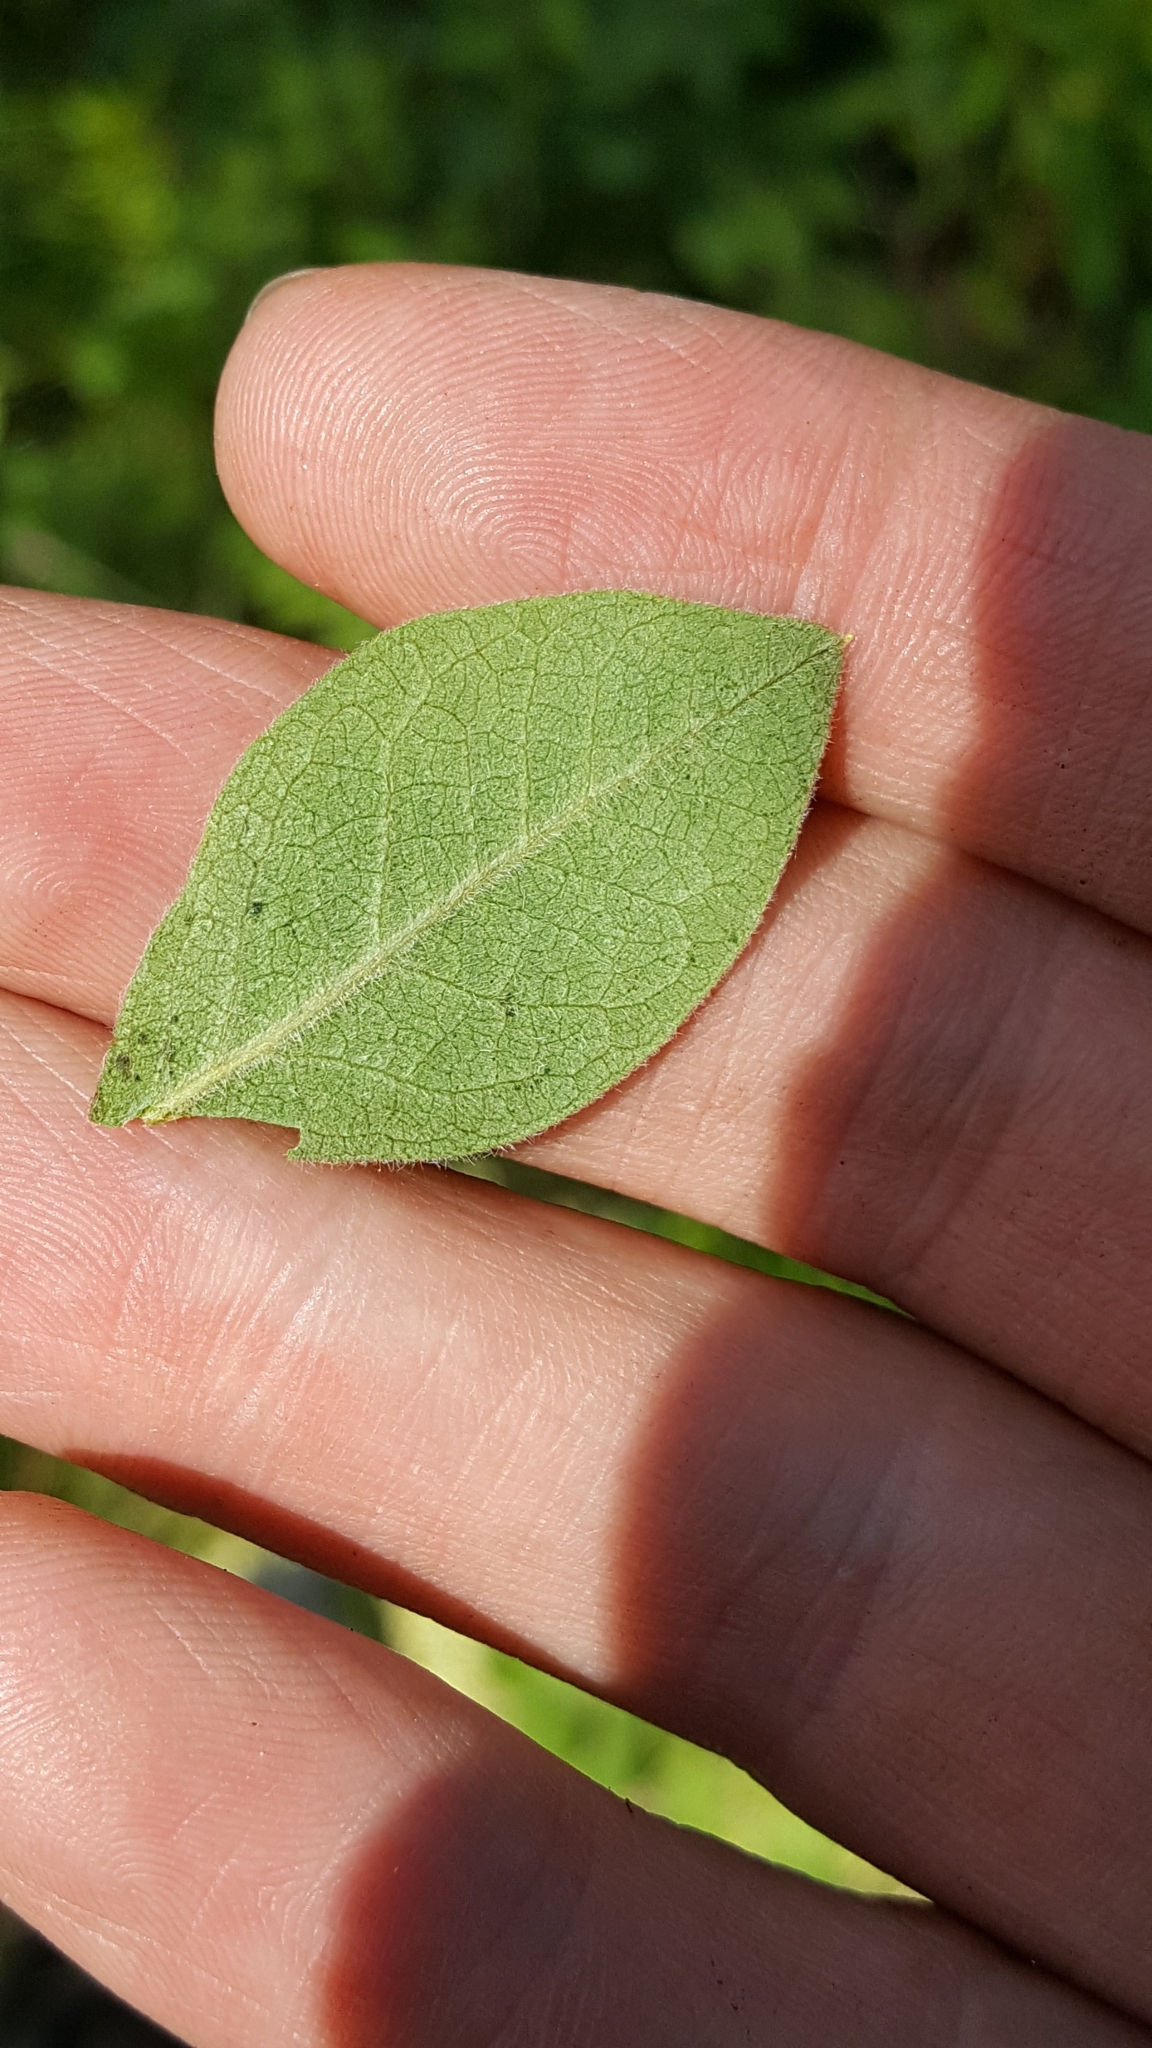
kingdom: Plantae
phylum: Tracheophyta
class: Magnoliopsida
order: Ericales
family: Ericaceae
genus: Vaccinium
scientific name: Vaccinium myrtilloides
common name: Canada blueberry
